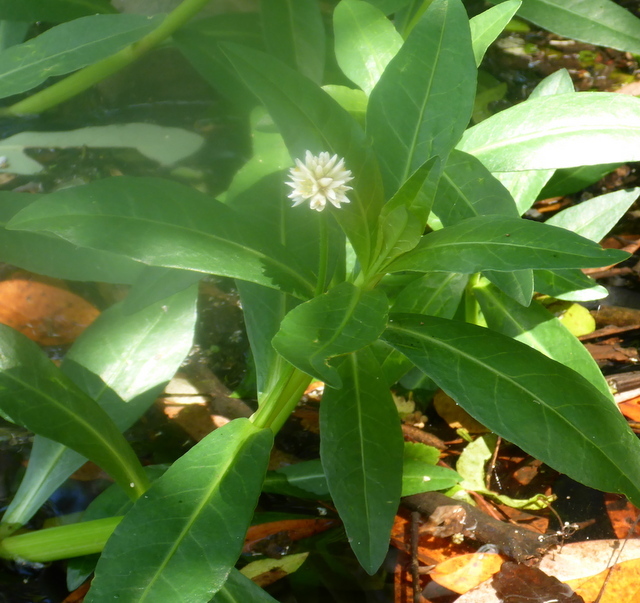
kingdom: Plantae
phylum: Tracheophyta
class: Magnoliopsida
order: Caryophyllales
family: Amaranthaceae
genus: Alternanthera
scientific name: Alternanthera philoxeroides
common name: Alligatorweed
